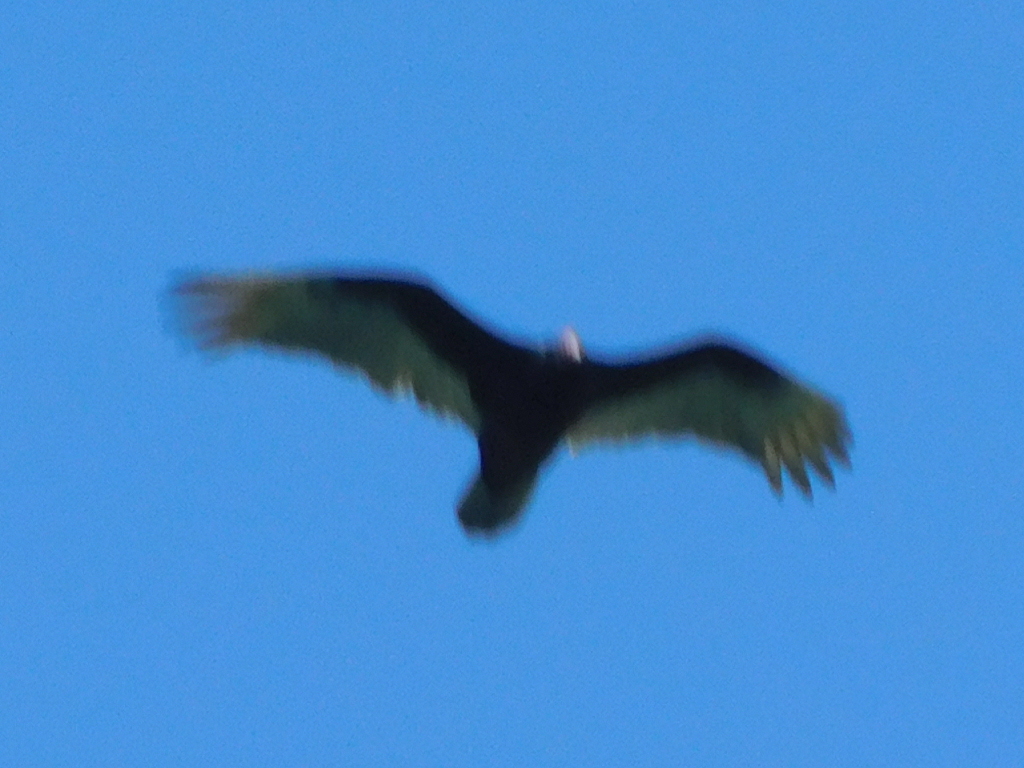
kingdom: Animalia
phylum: Chordata
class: Aves
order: Accipitriformes
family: Cathartidae
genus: Cathartes
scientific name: Cathartes aura
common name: Turkey vulture
